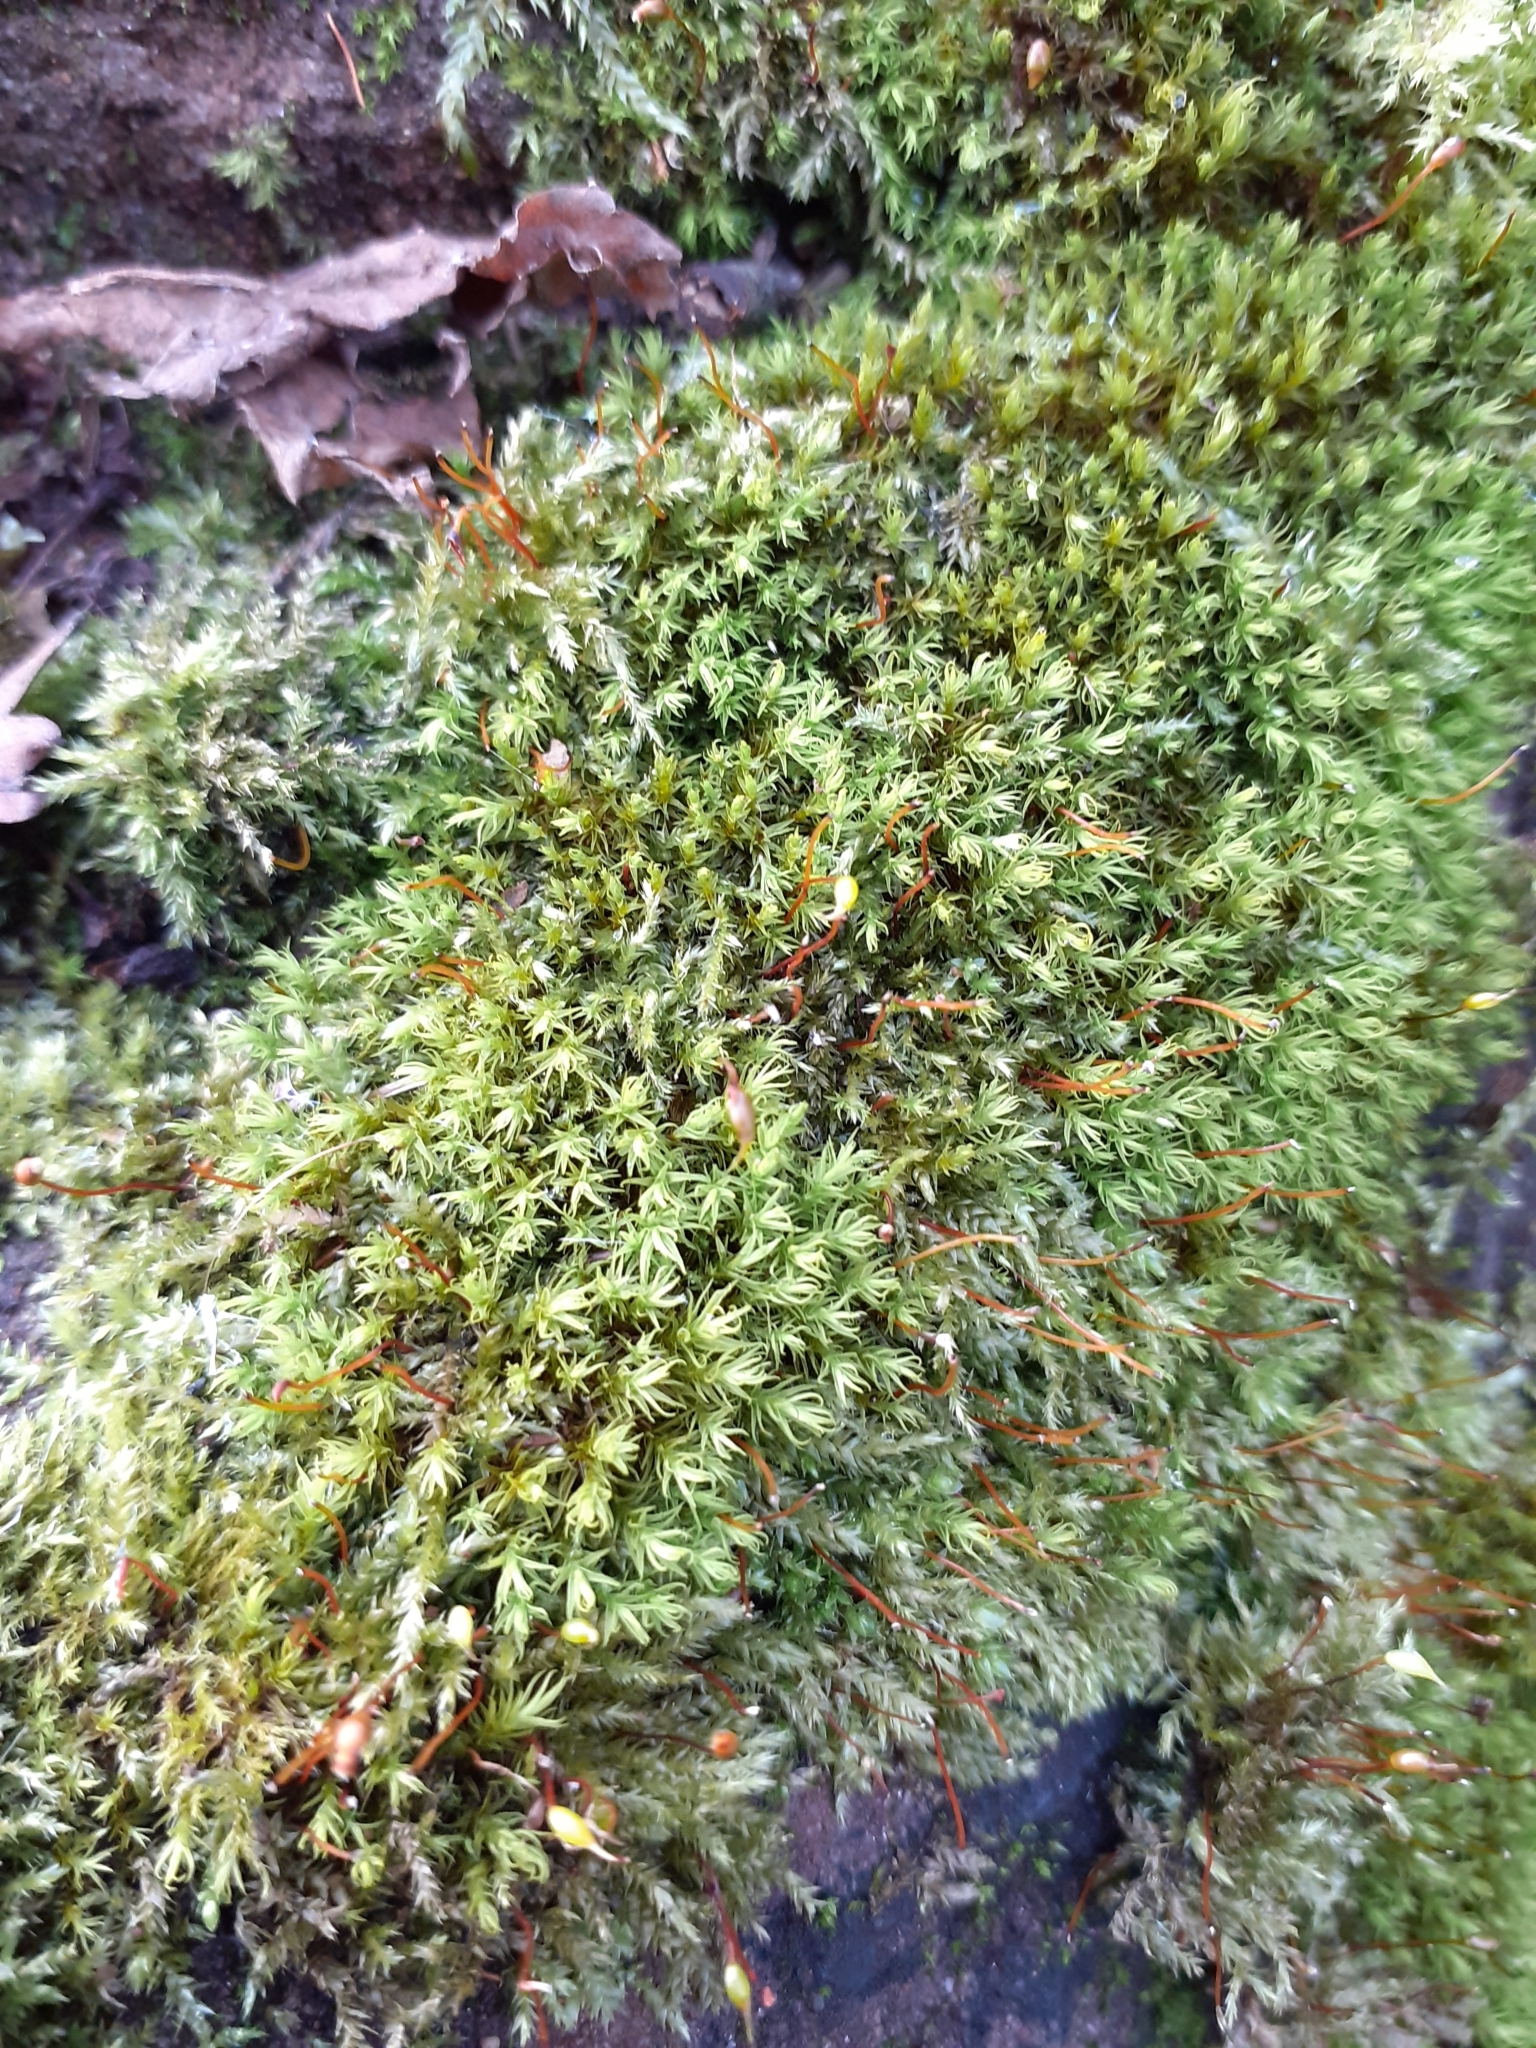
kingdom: Plantae
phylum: Bryophyta
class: Bryopsida
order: Pottiales
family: Pottiaceae
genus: Barbula
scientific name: Barbula unguiculata
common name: Prickly beard moss
